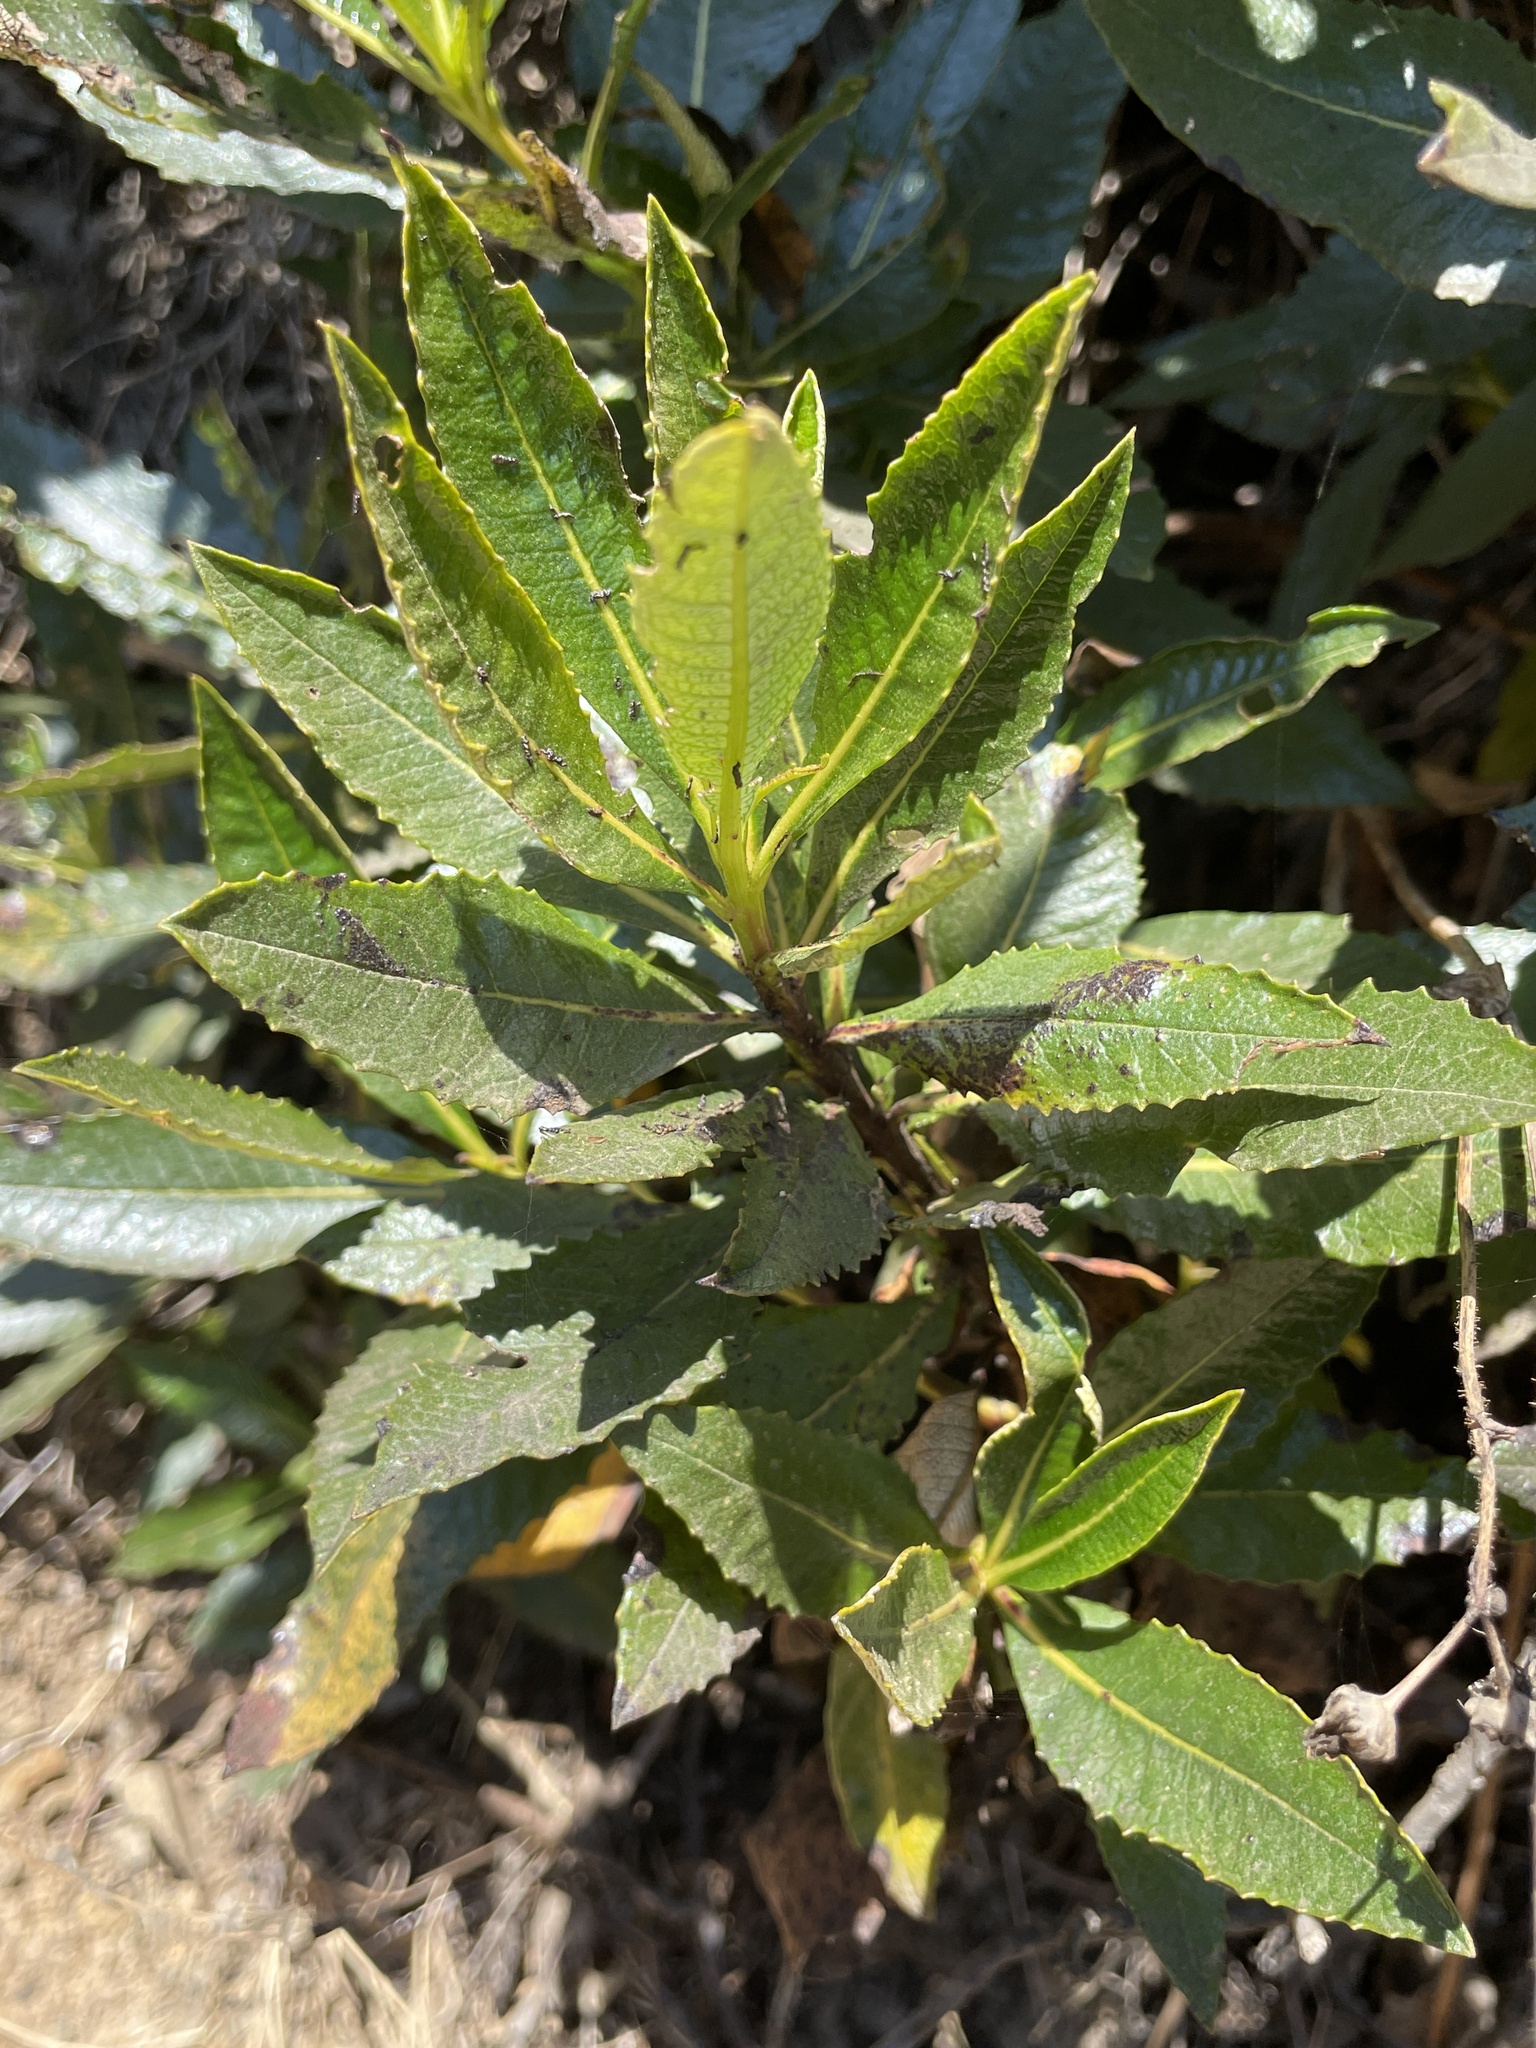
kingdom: Plantae
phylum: Tracheophyta
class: Magnoliopsida
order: Boraginales
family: Namaceae
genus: Eriodictyon
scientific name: Eriodictyon californicum
